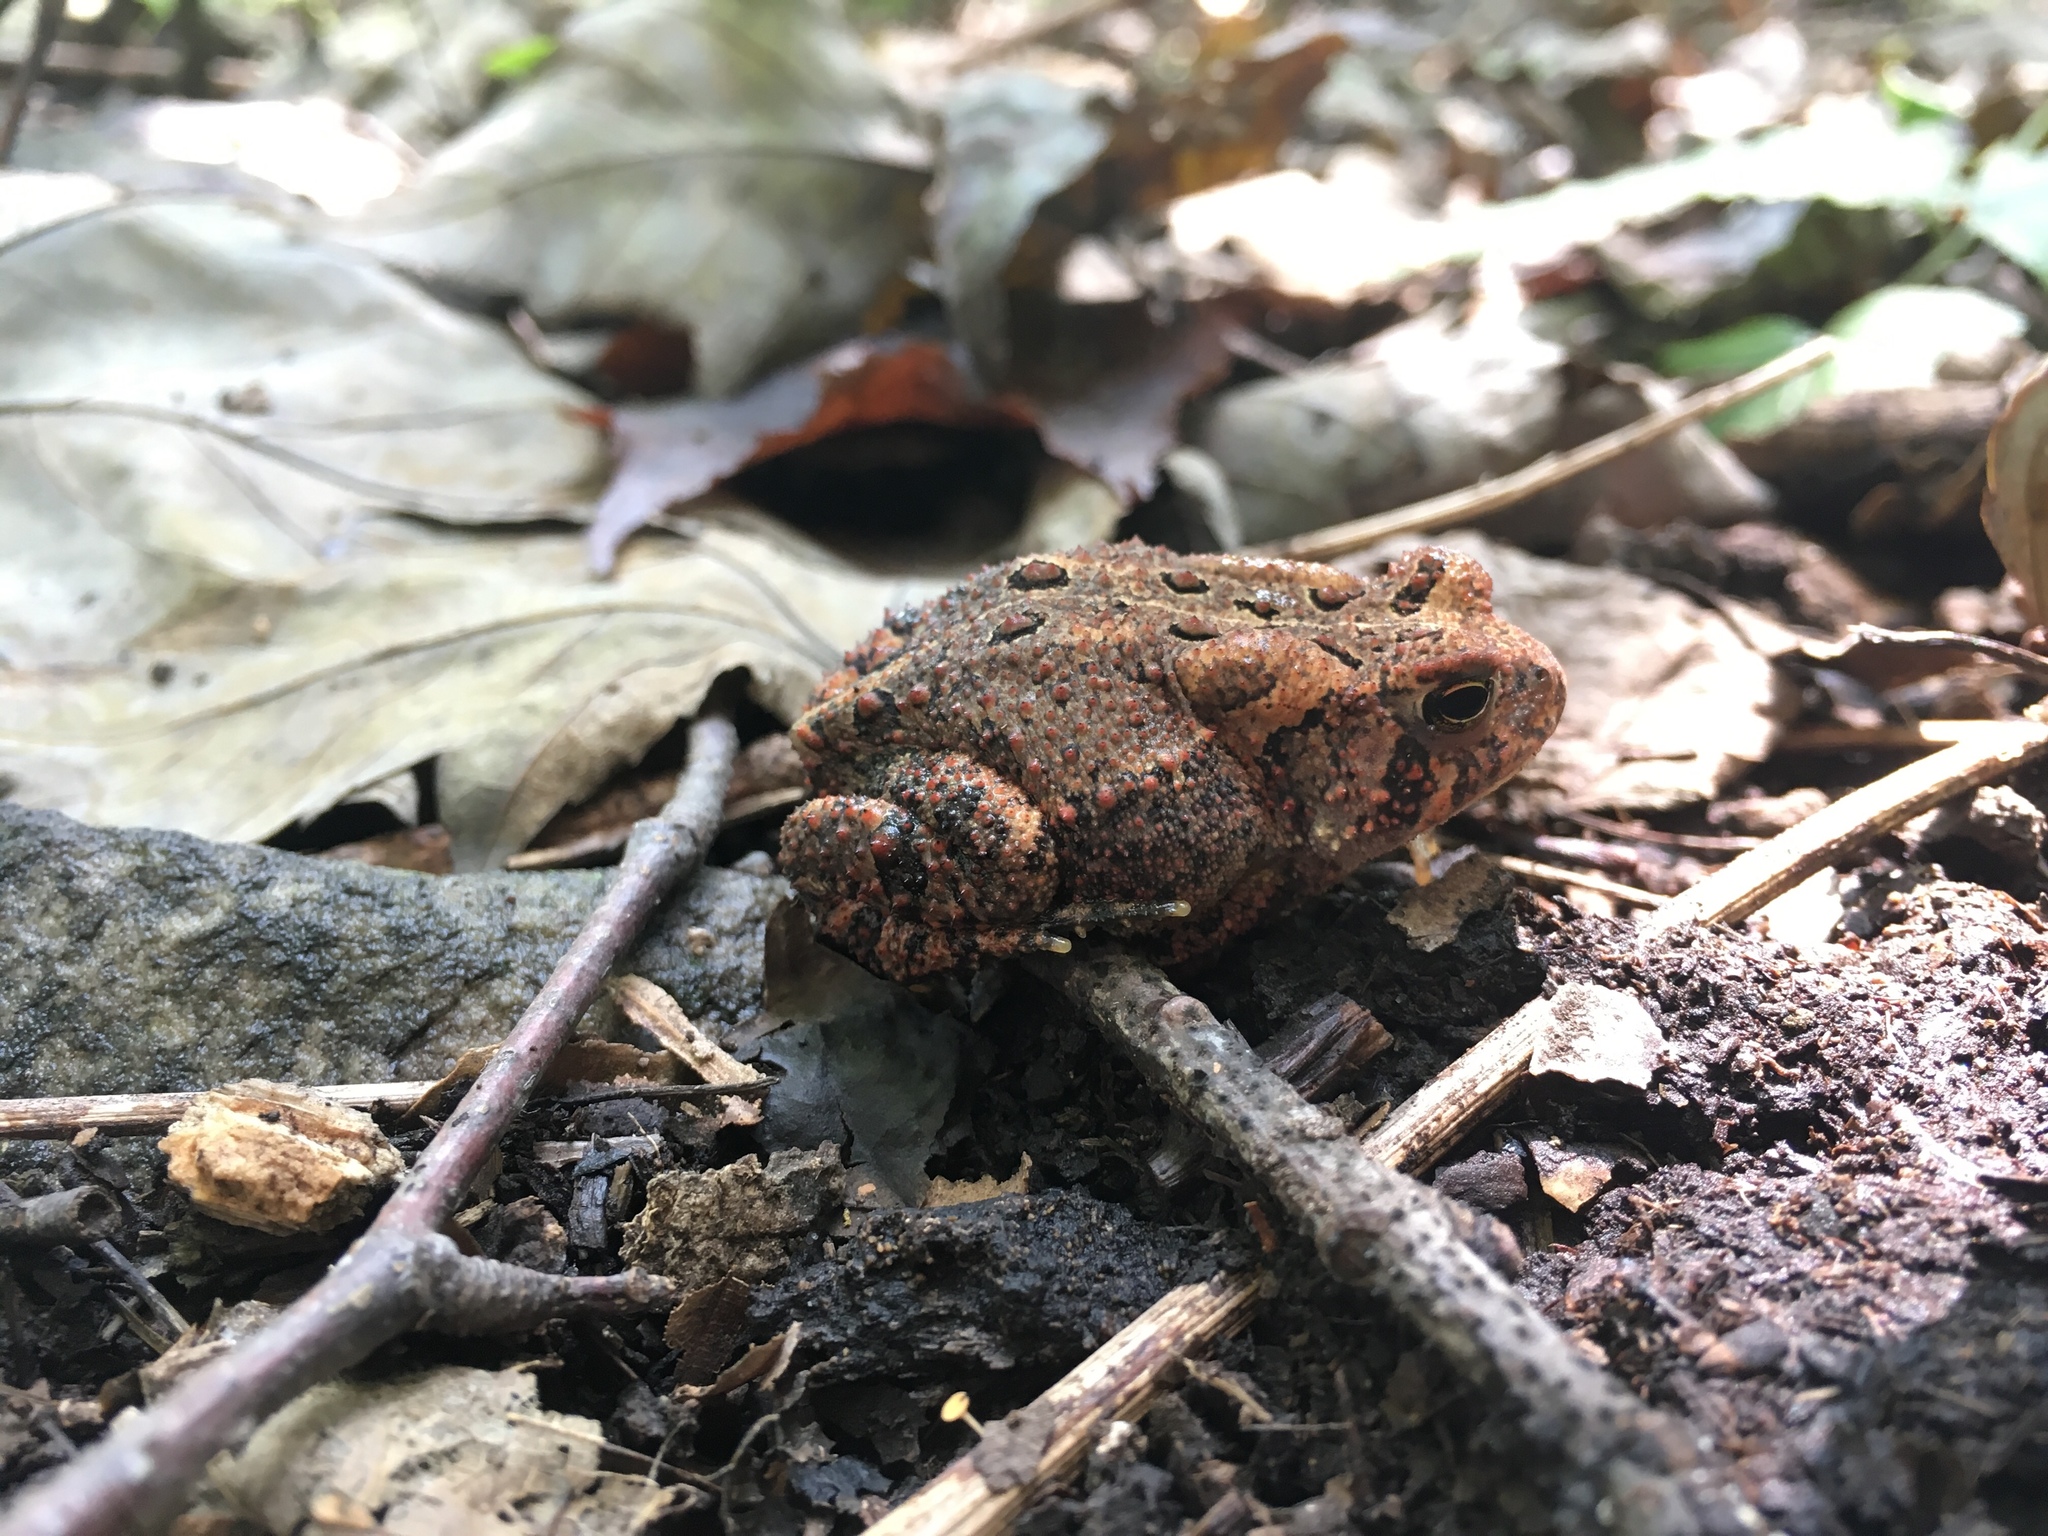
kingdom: Animalia
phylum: Chordata
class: Amphibia
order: Anura
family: Bufonidae
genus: Anaxyrus
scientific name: Anaxyrus americanus
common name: American toad
